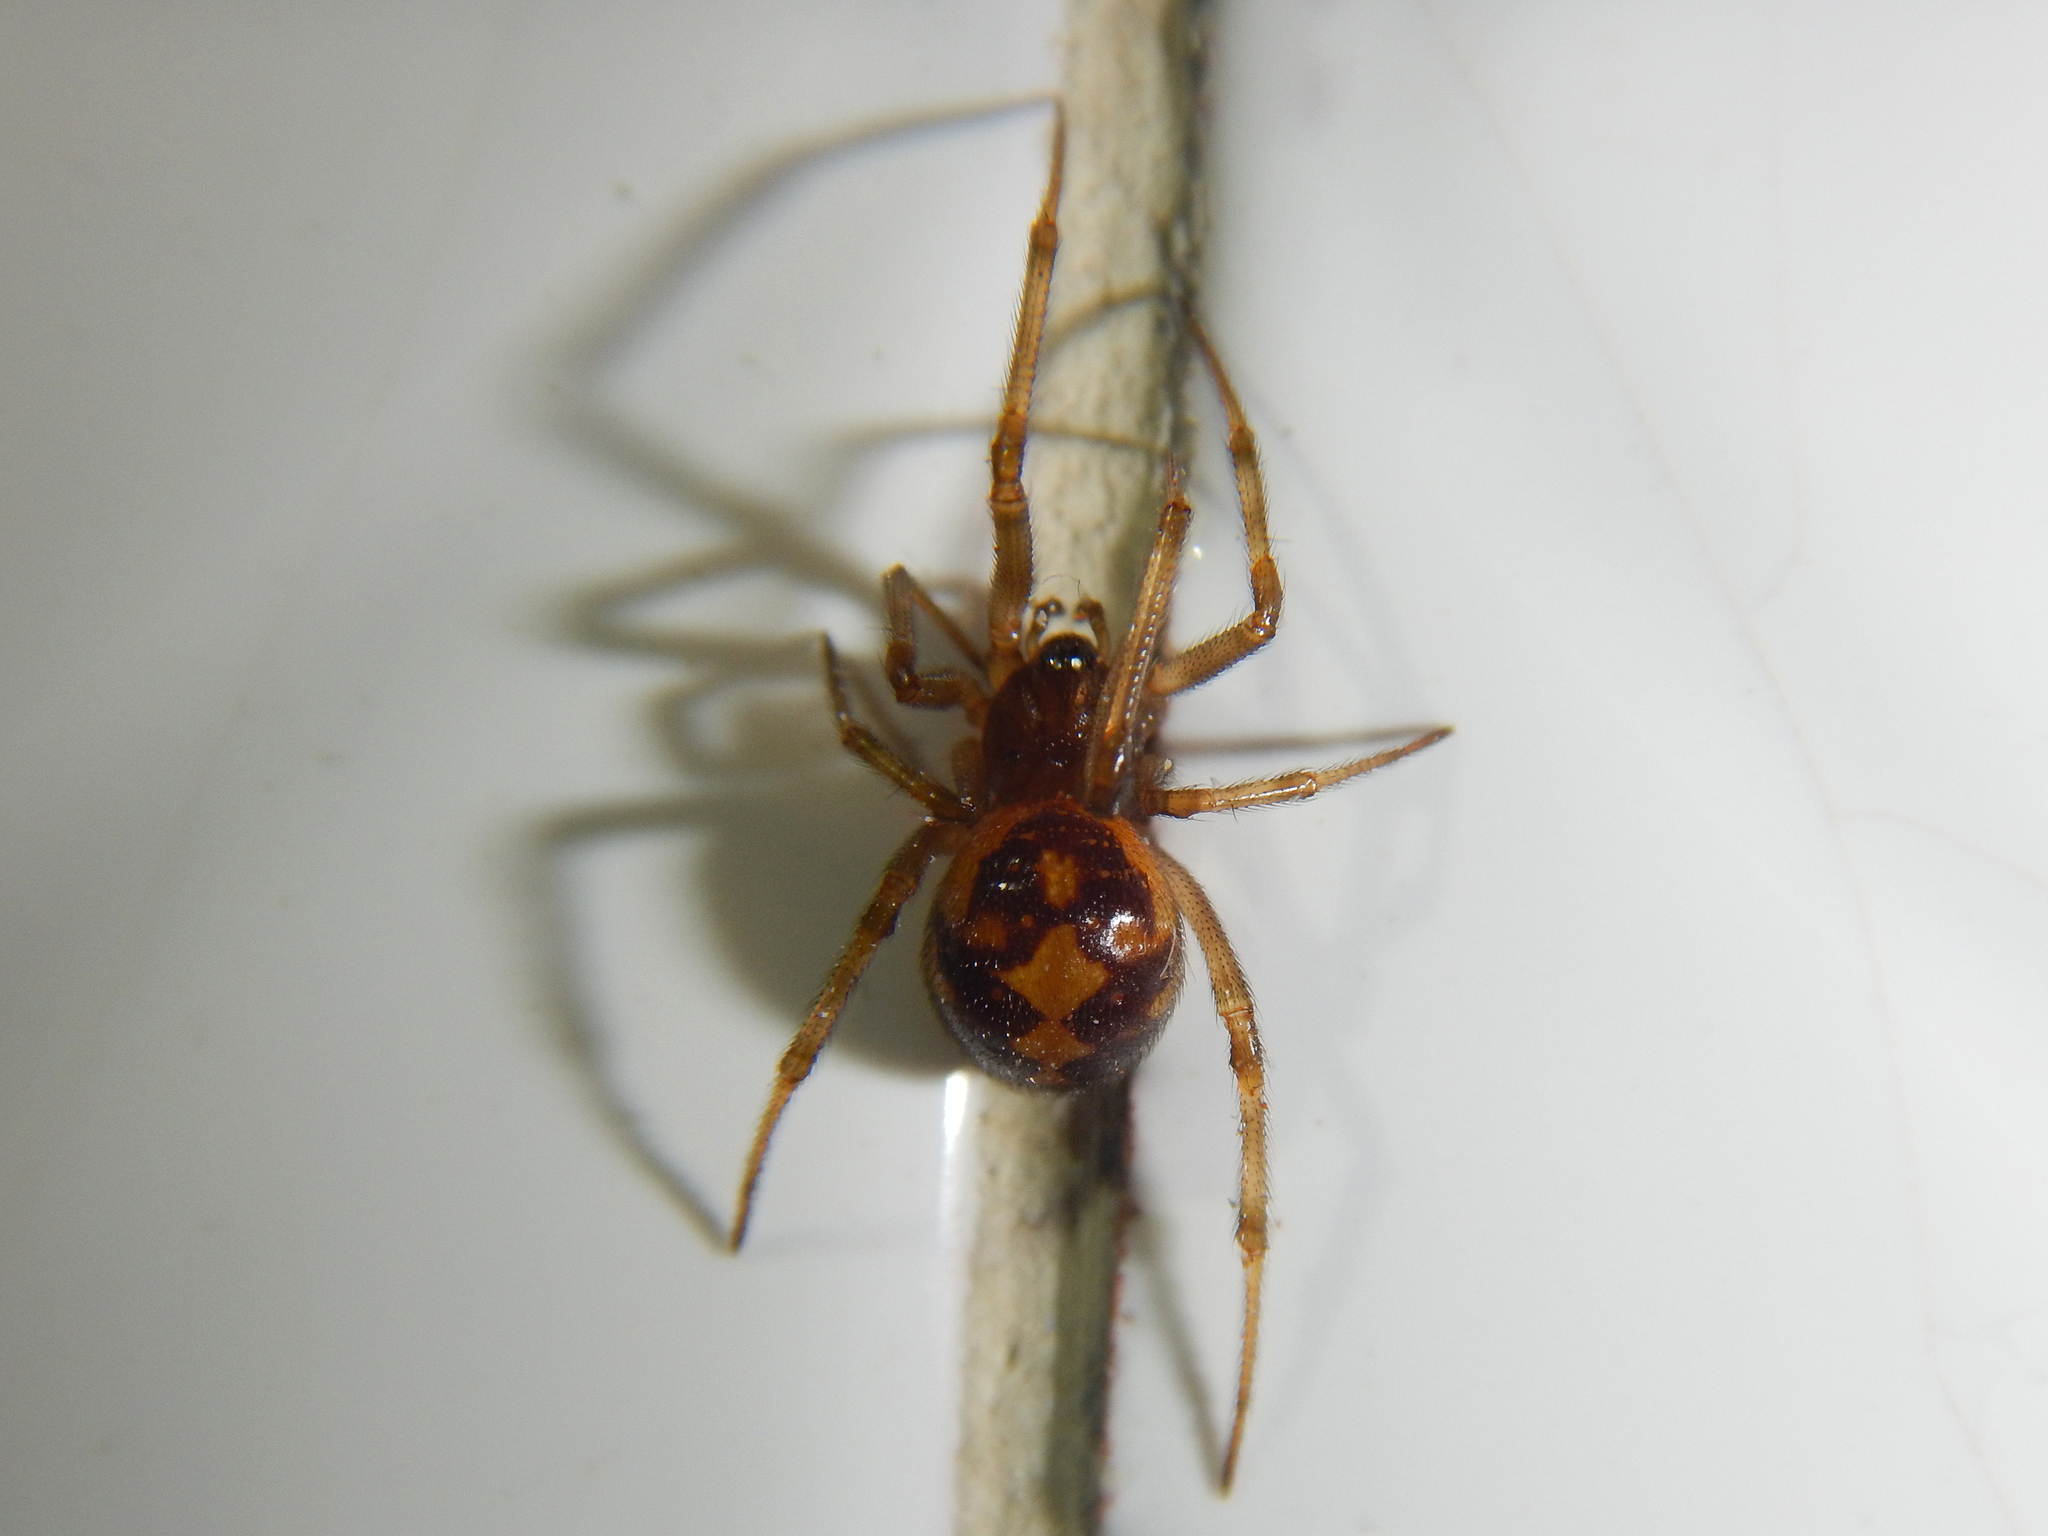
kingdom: Animalia
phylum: Arthropoda
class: Arachnida
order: Araneae
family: Theridiidae
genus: Steatoda
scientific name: Steatoda triangulosa
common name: Triangulate bud spider
